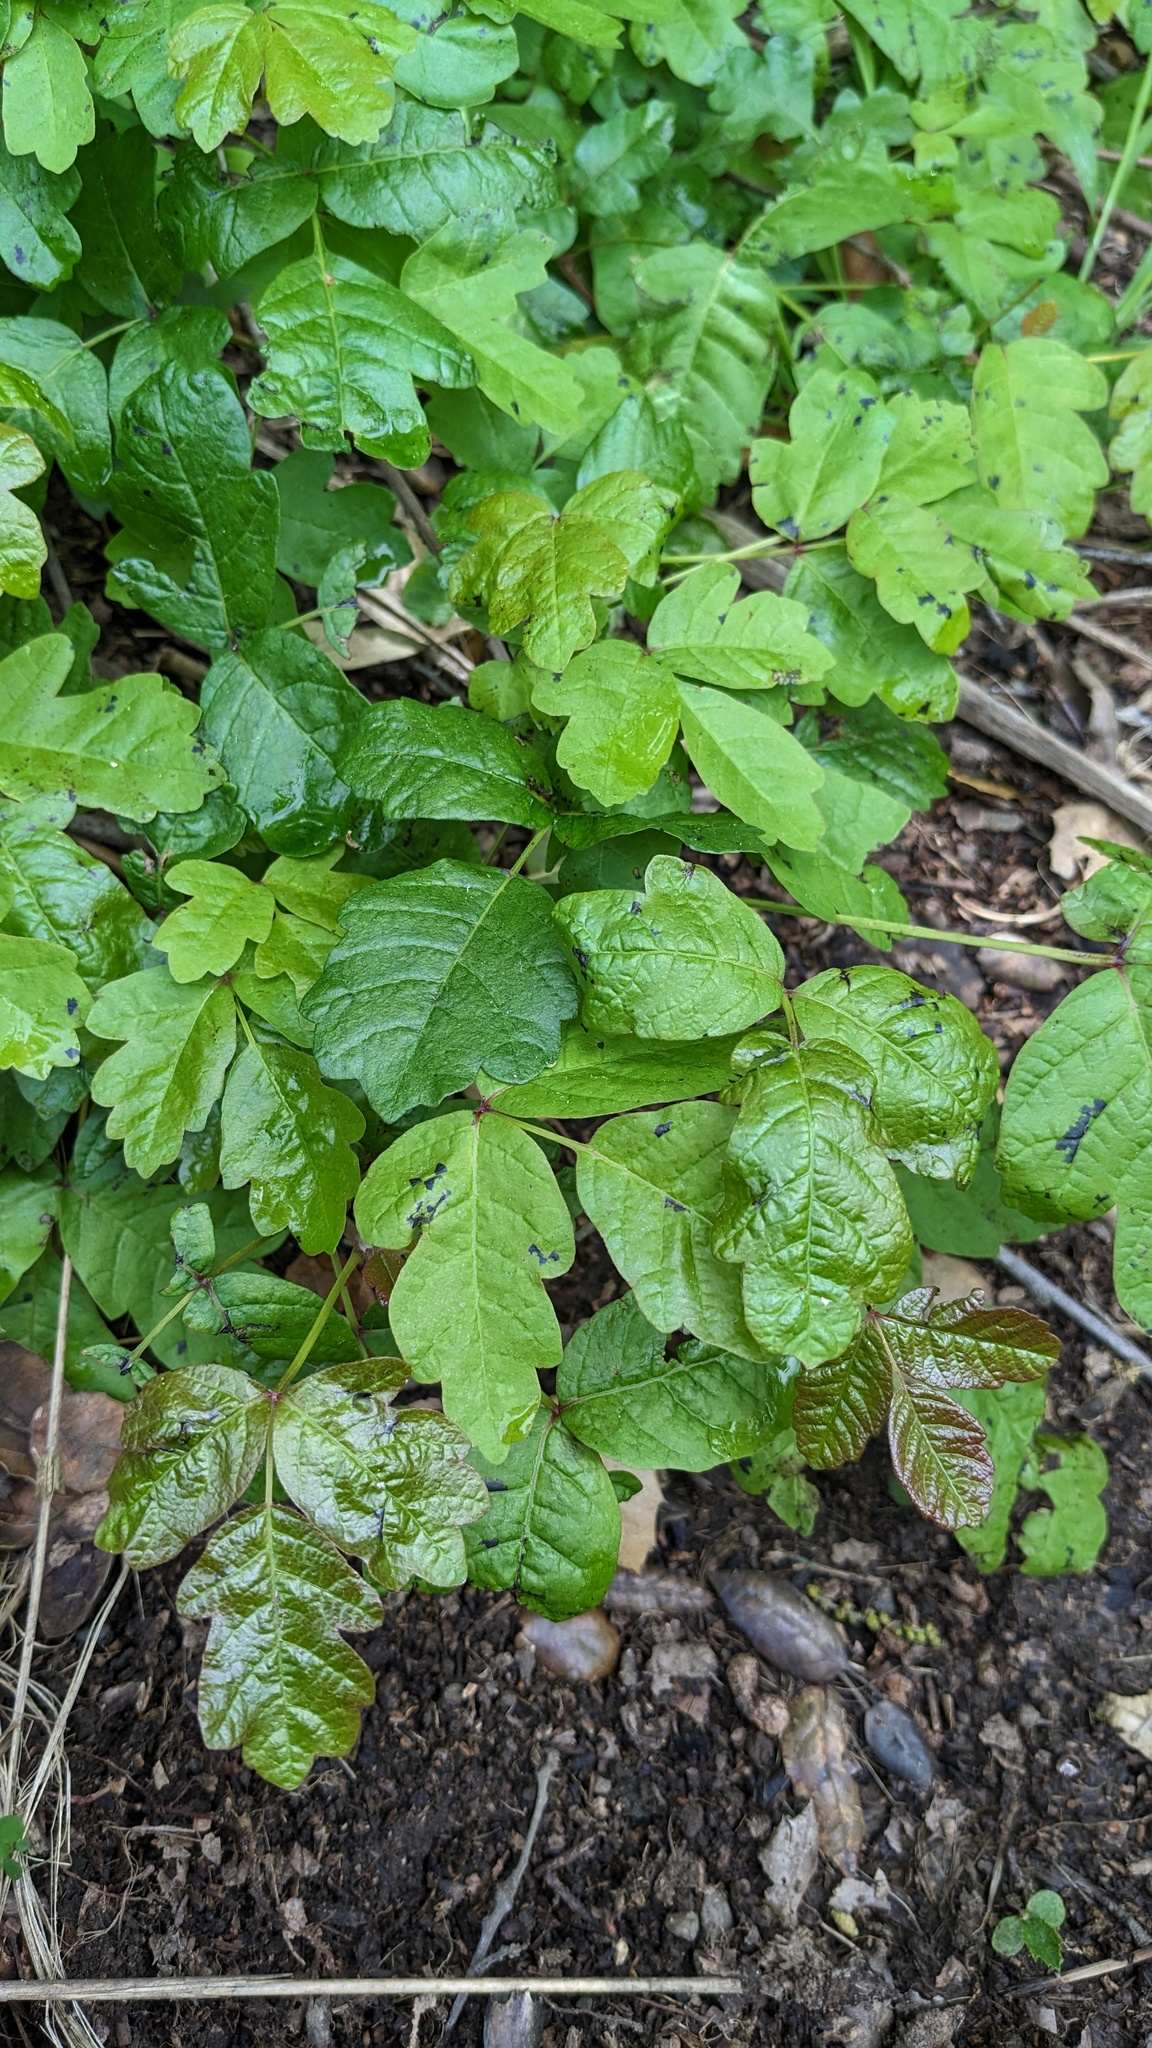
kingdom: Plantae
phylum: Tracheophyta
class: Magnoliopsida
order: Sapindales
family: Anacardiaceae
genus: Toxicodendron
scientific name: Toxicodendron diversilobum
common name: Pacific poison-oak
